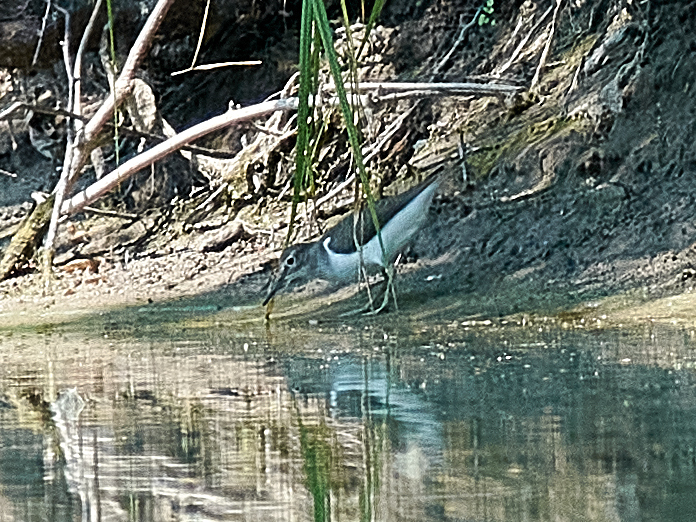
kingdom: Animalia
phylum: Chordata
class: Aves
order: Charadriiformes
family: Scolopacidae
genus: Actitis
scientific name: Actitis hypoleucos
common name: Common sandpiper
